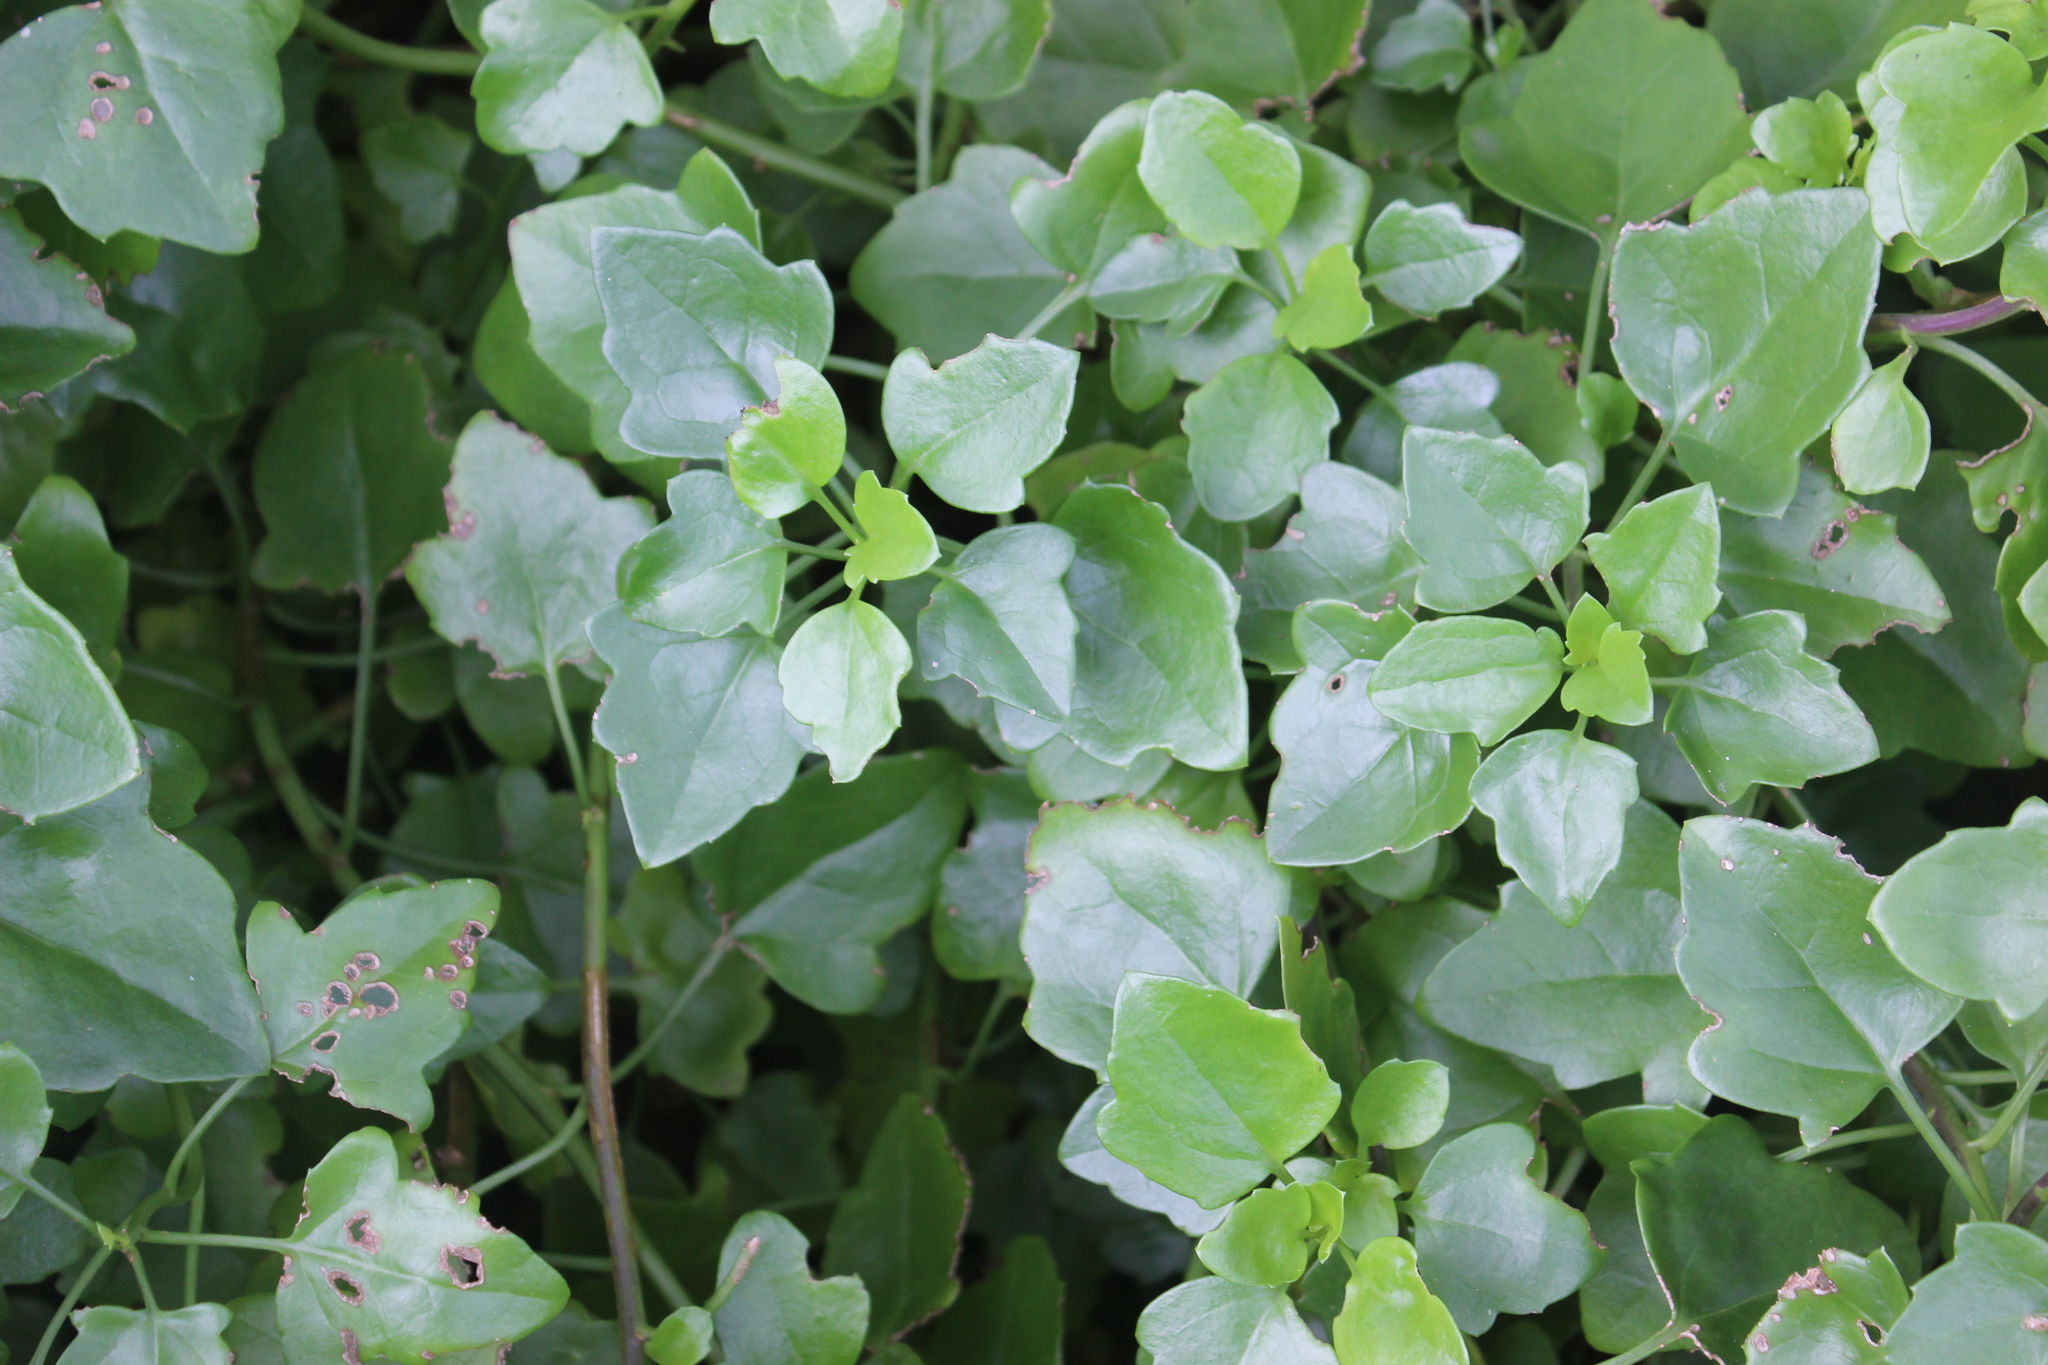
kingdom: Plantae
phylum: Tracheophyta
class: Magnoliopsida
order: Asterales
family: Asteraceae
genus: Senecio
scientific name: Senecio angulatus
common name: Climbing groundsel
